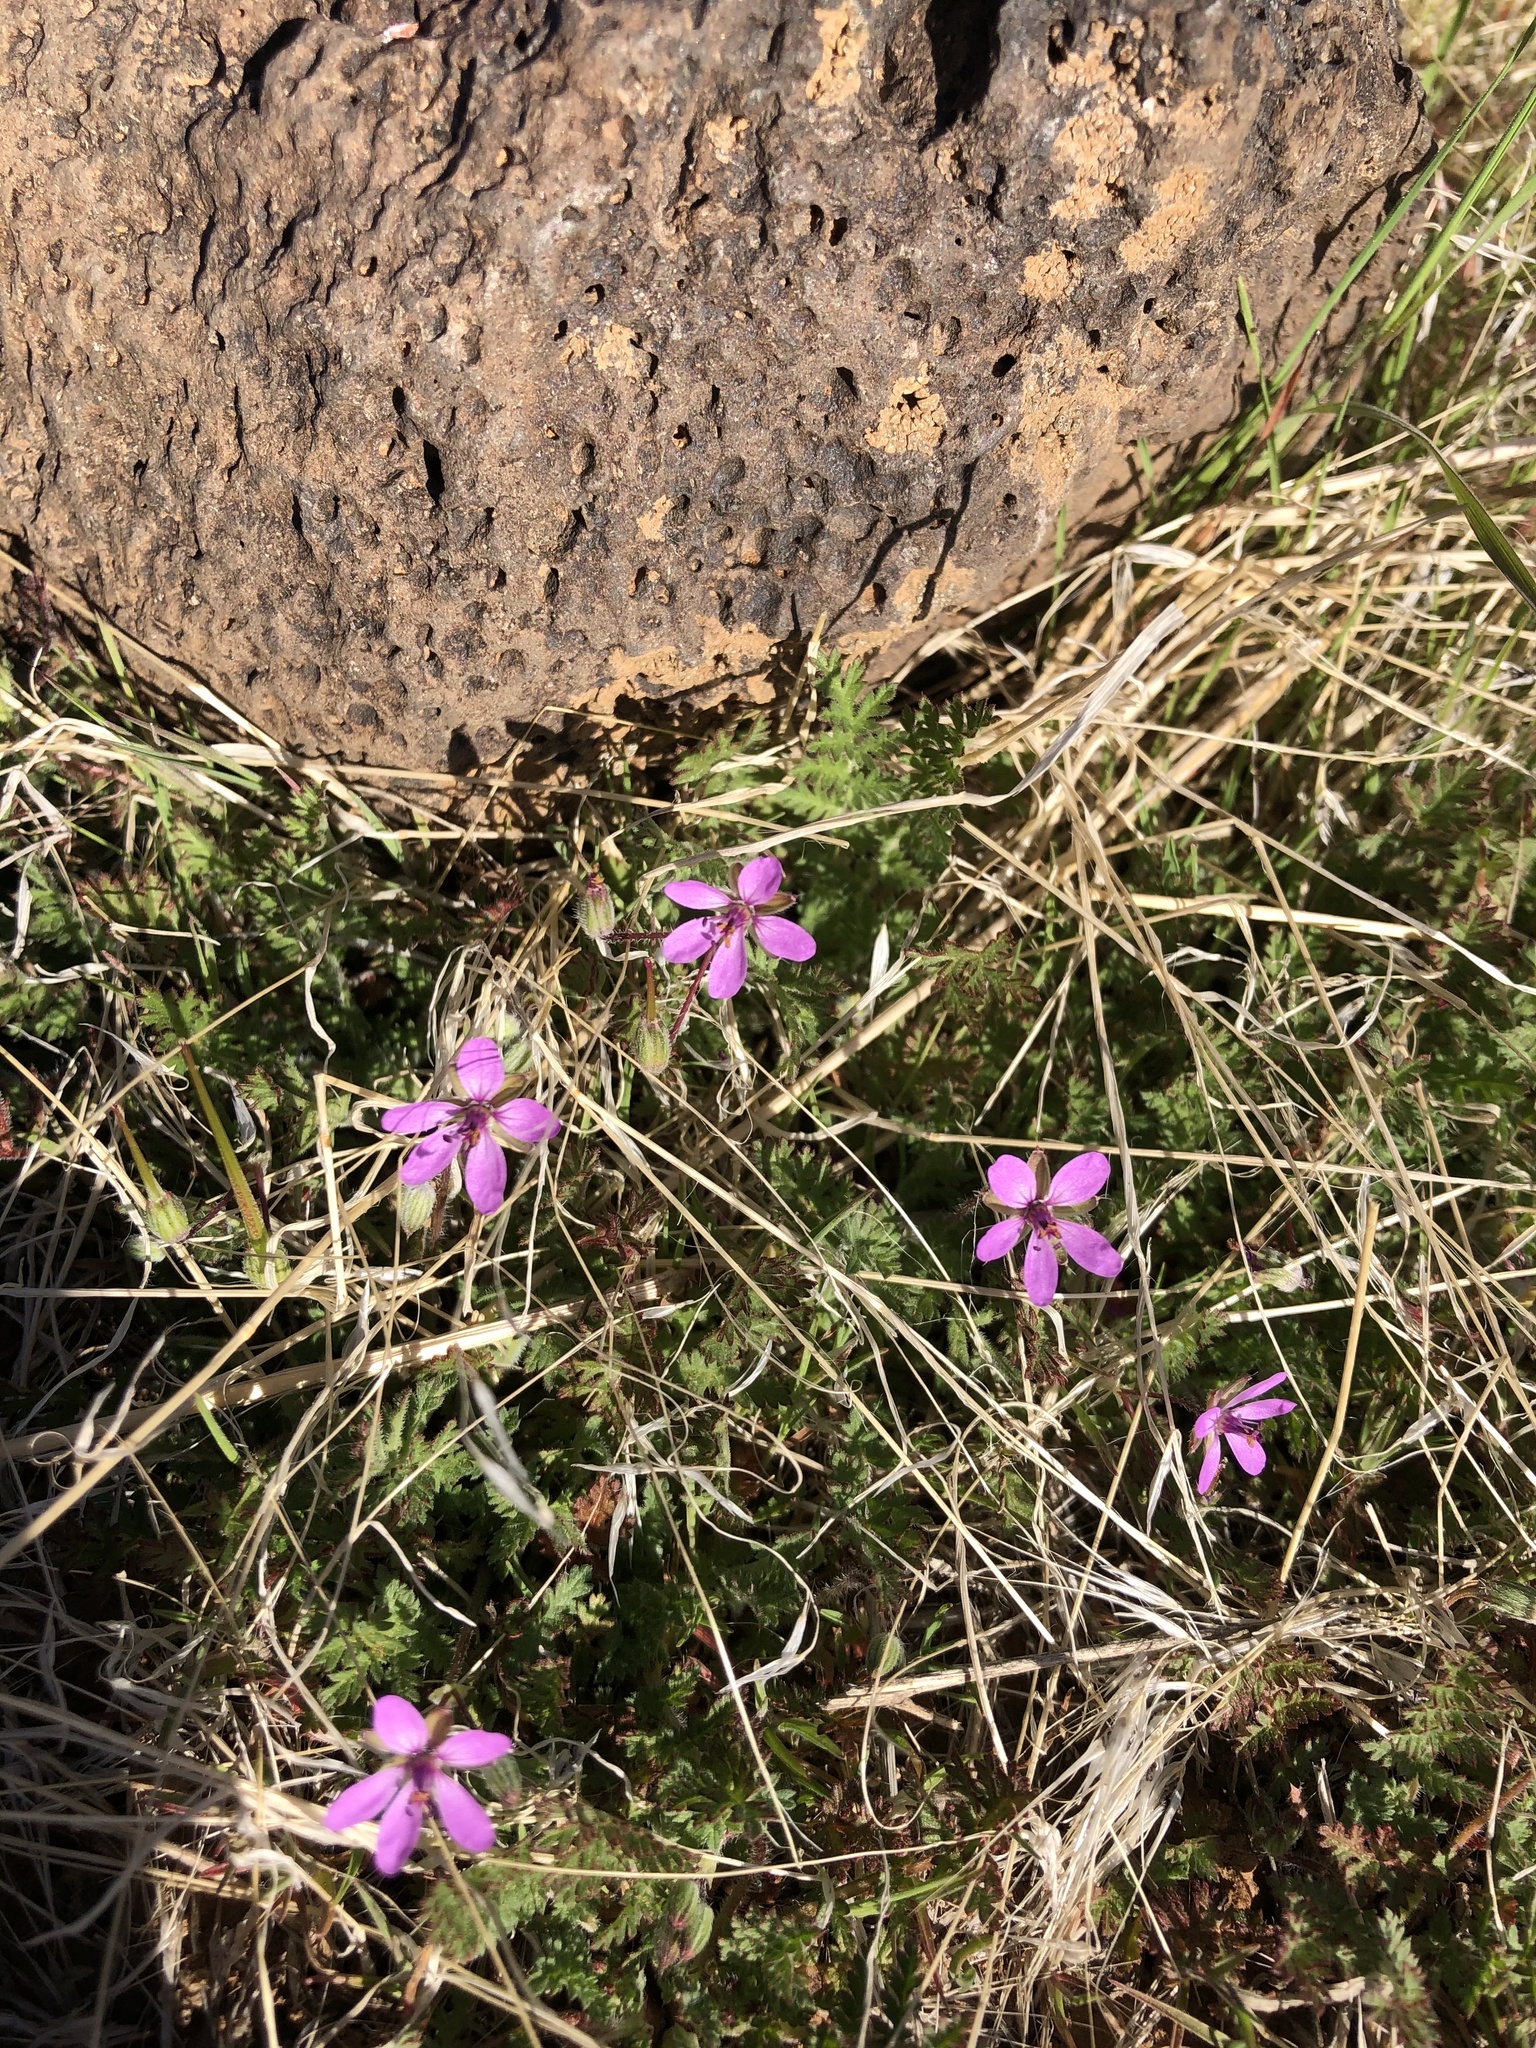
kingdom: Plantae
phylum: Tracheophyta
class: Magnoliopsida
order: Geraniales
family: Geraniaceae
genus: Erodium
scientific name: Erodium cicutarium
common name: Common stork's-bill
